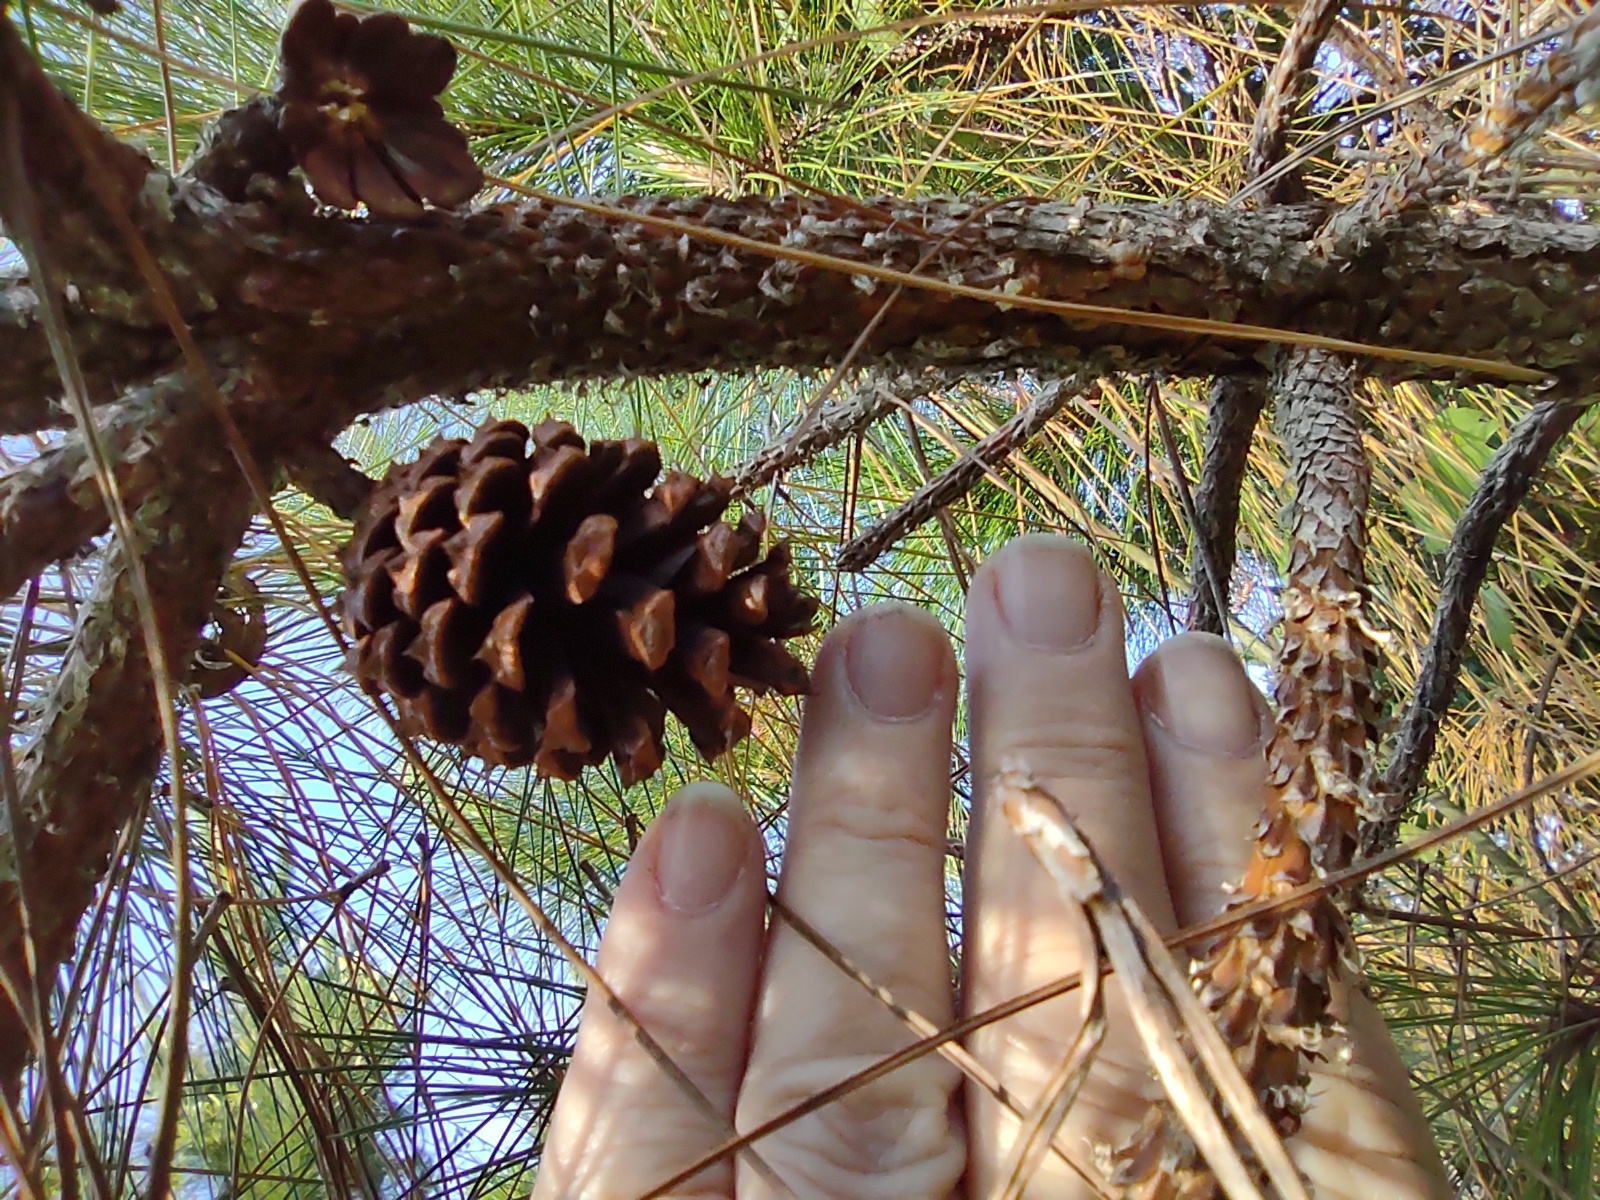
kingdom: Plantae
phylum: Tracheophyta
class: Pinopsida
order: Pinales
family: Pinaceae
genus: Pinus
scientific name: Pinus elliottii
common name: Slash pine
